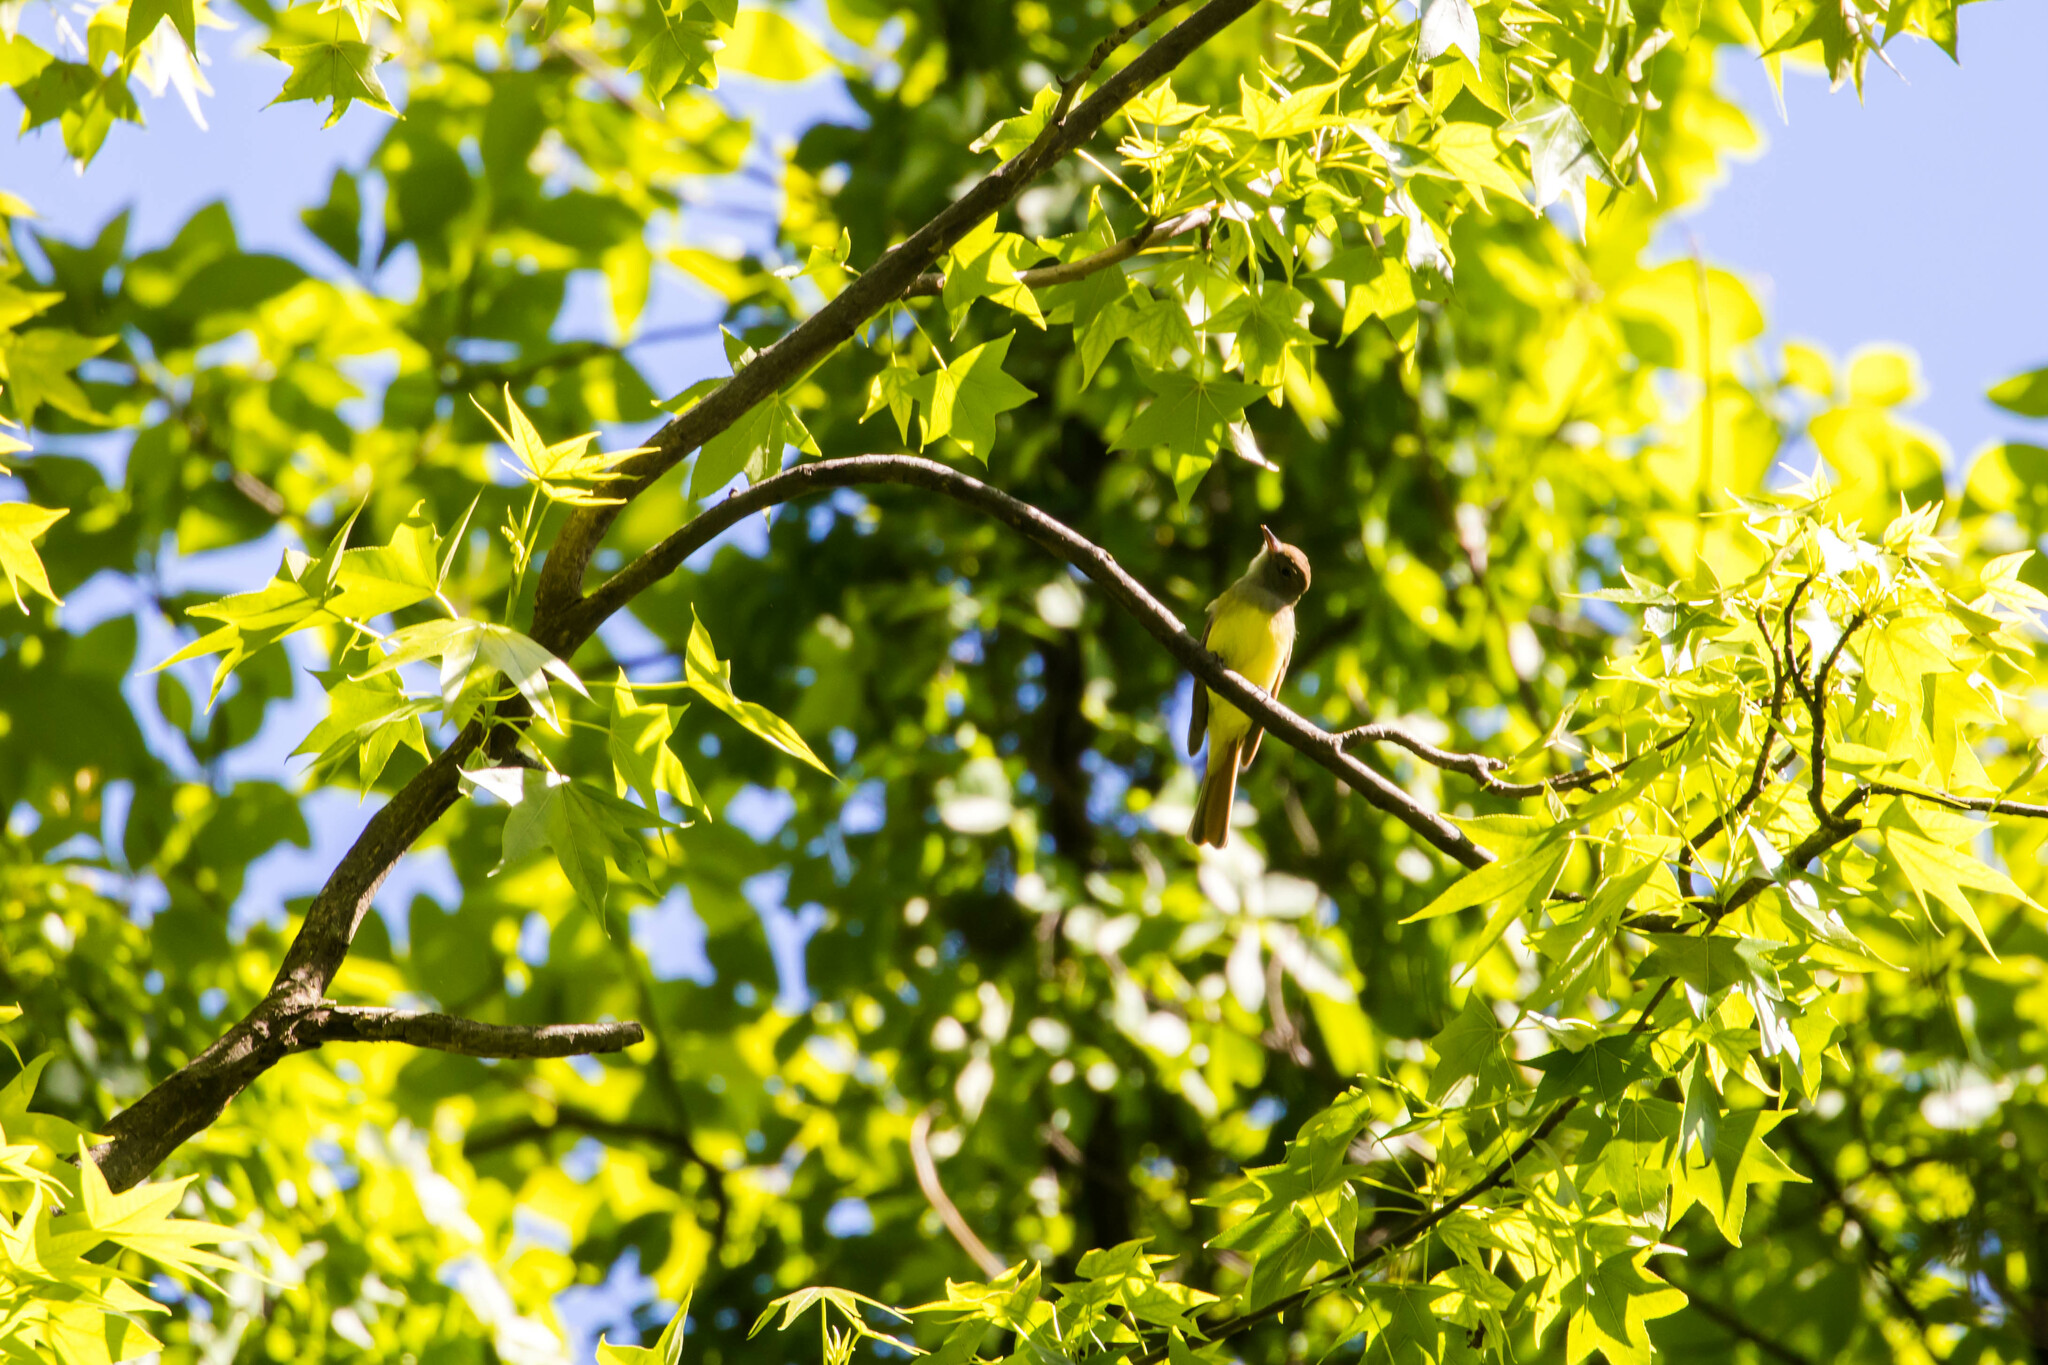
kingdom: Animalia
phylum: Chordata
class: Aves
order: Passeriformes
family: Tyrannidae
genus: Myiarchus
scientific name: Myiarchus crinitus
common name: Great crested flycatcher
